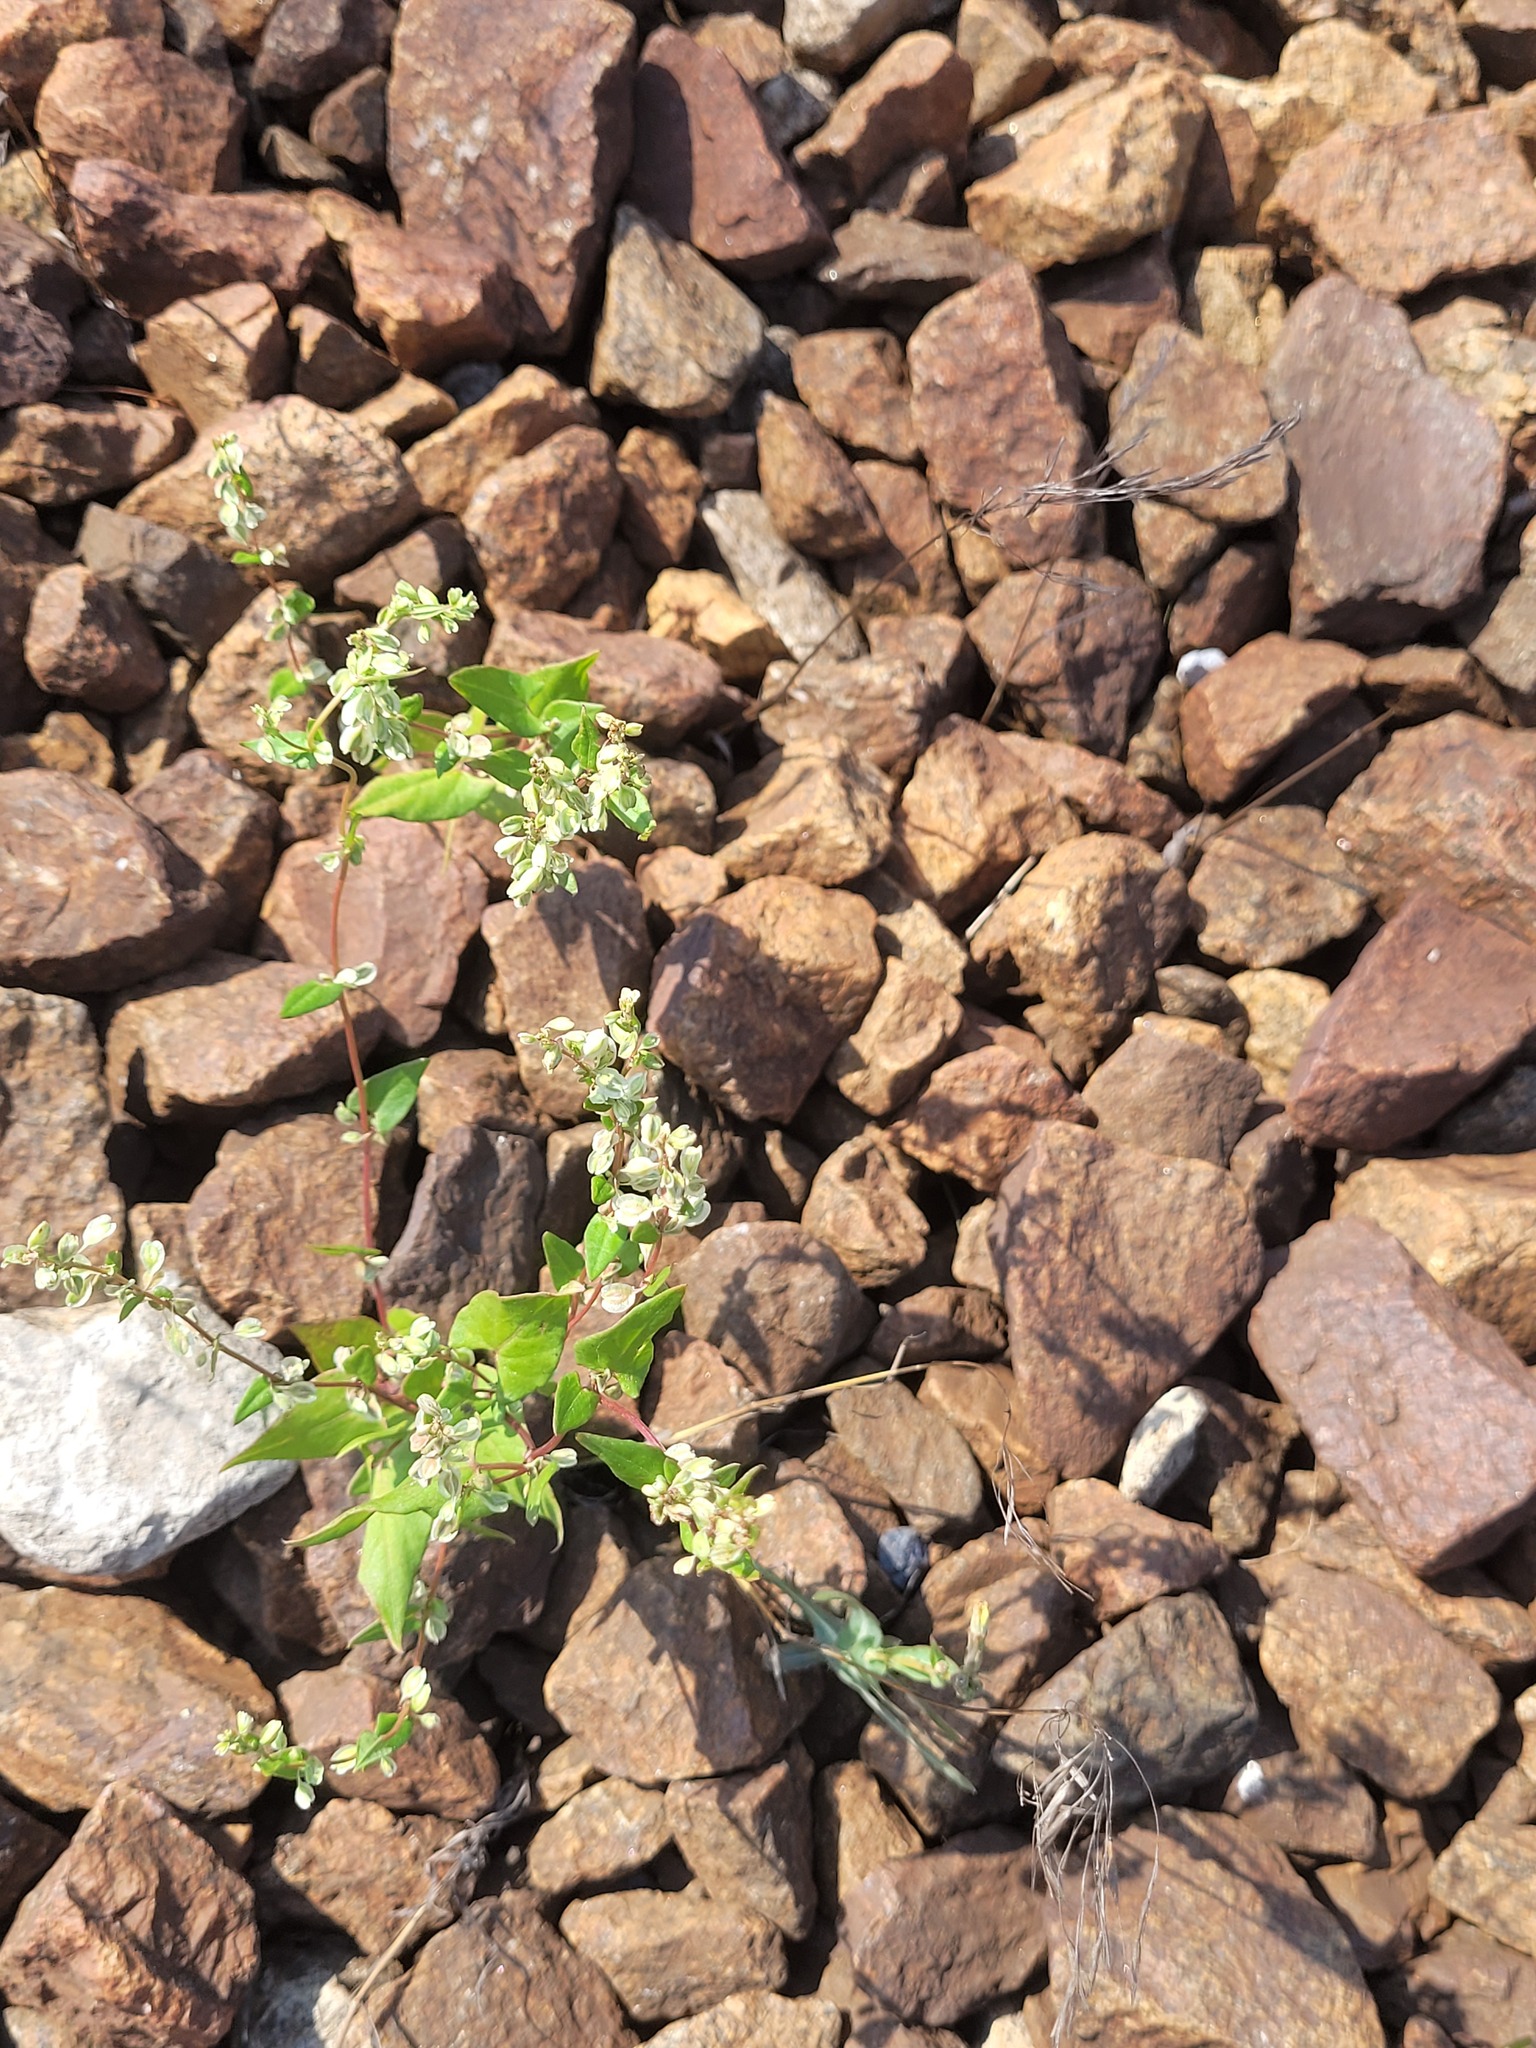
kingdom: Plantae
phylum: Tracheophyta
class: Magnoliopsida
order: Caryophyllales
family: Polygonaceae
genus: Fallopia
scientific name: Fallopia dumetorum
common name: Copse-bindweed
